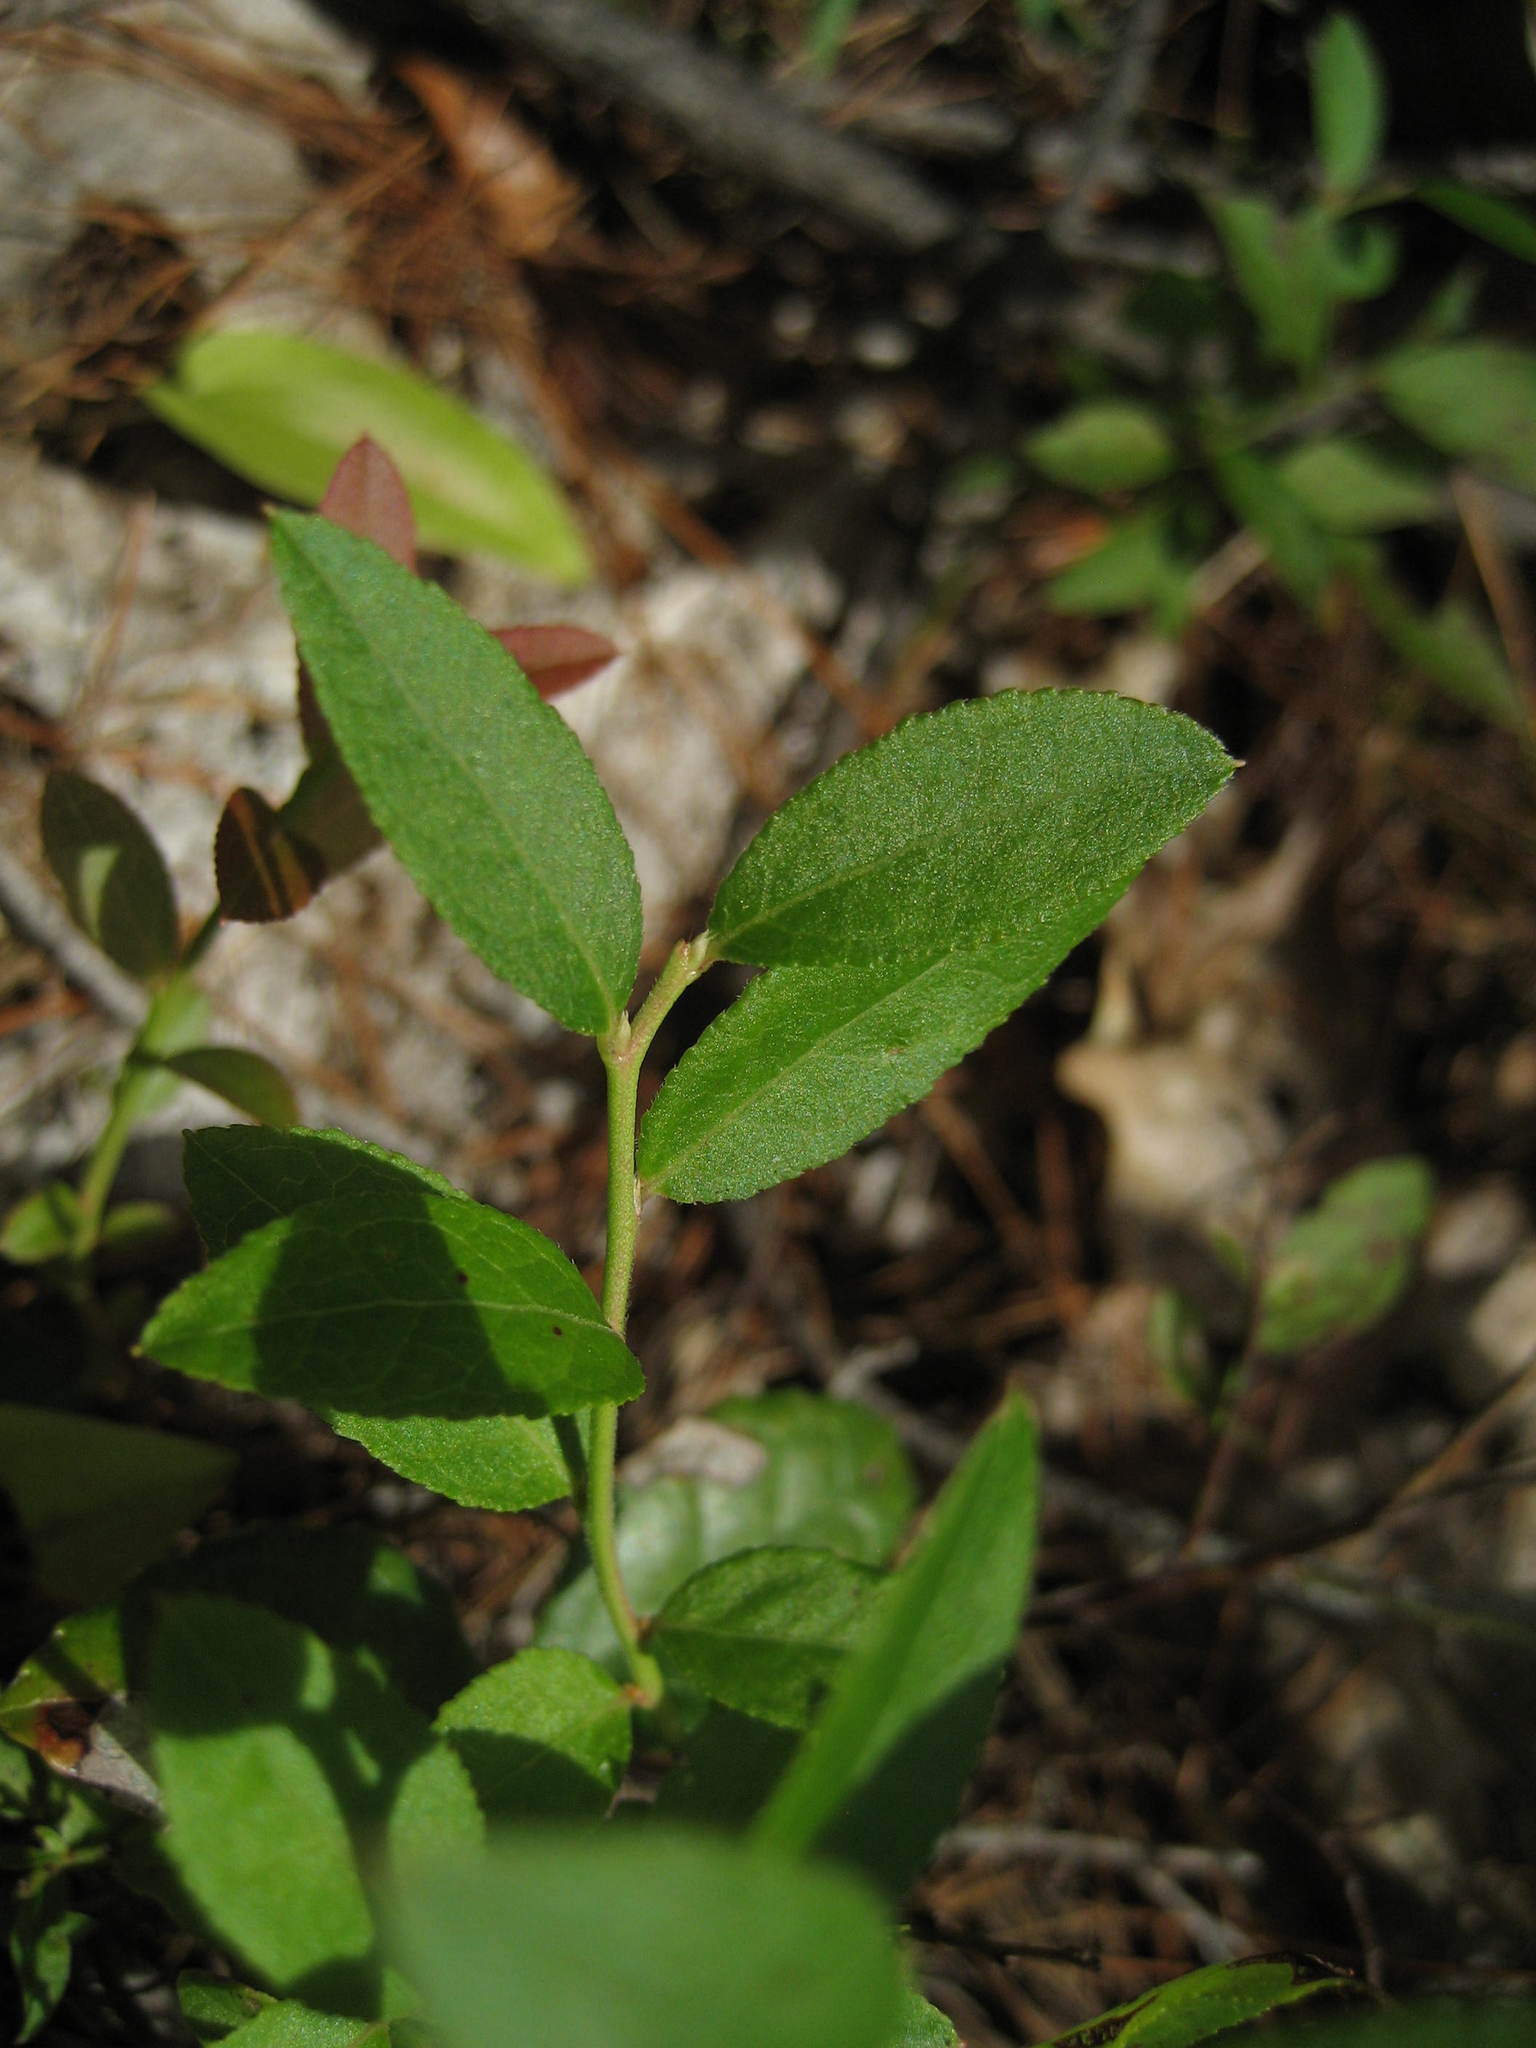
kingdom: Plantae
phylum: Tracheophyta
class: Magnoliopsida
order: Ericales
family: Ericaceae
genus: Vaccinium
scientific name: Vaccinium angustifolium
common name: Early lowbush blueberry
